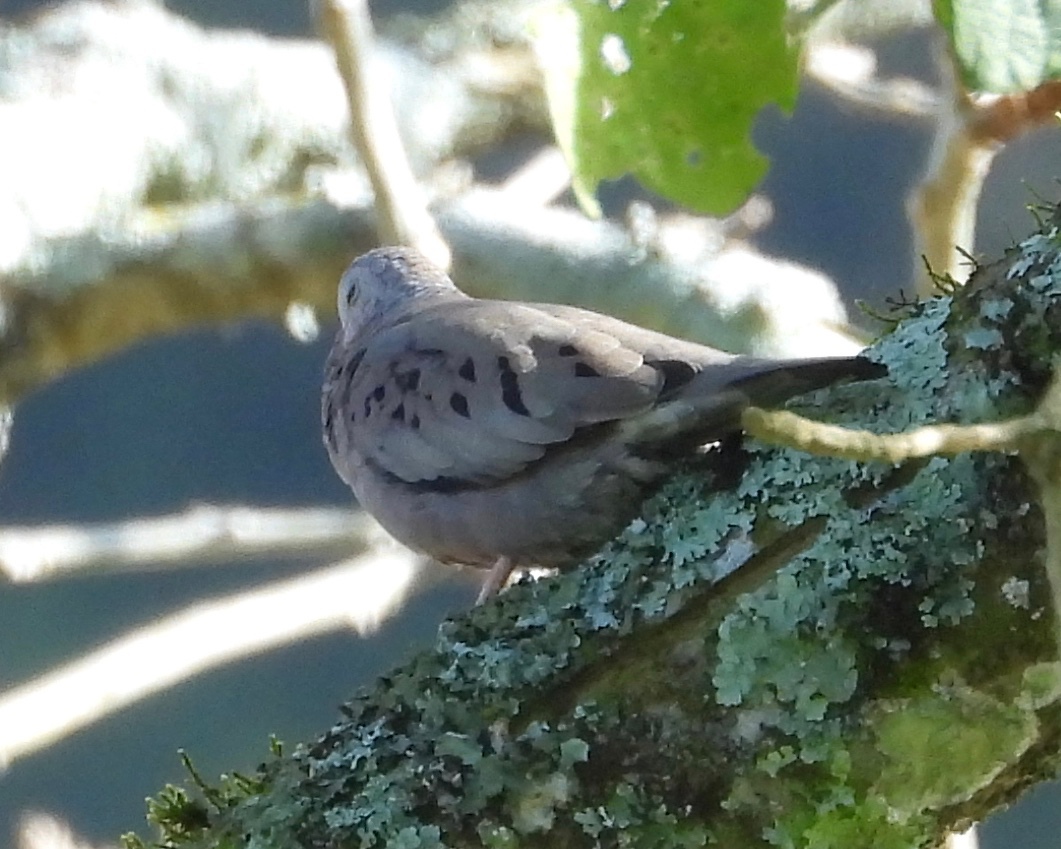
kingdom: Animalia
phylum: Chordata
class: Aves
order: Columbiformes
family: Columbidae
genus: Columbina
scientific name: Columbina passerina
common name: Common ground-dove
